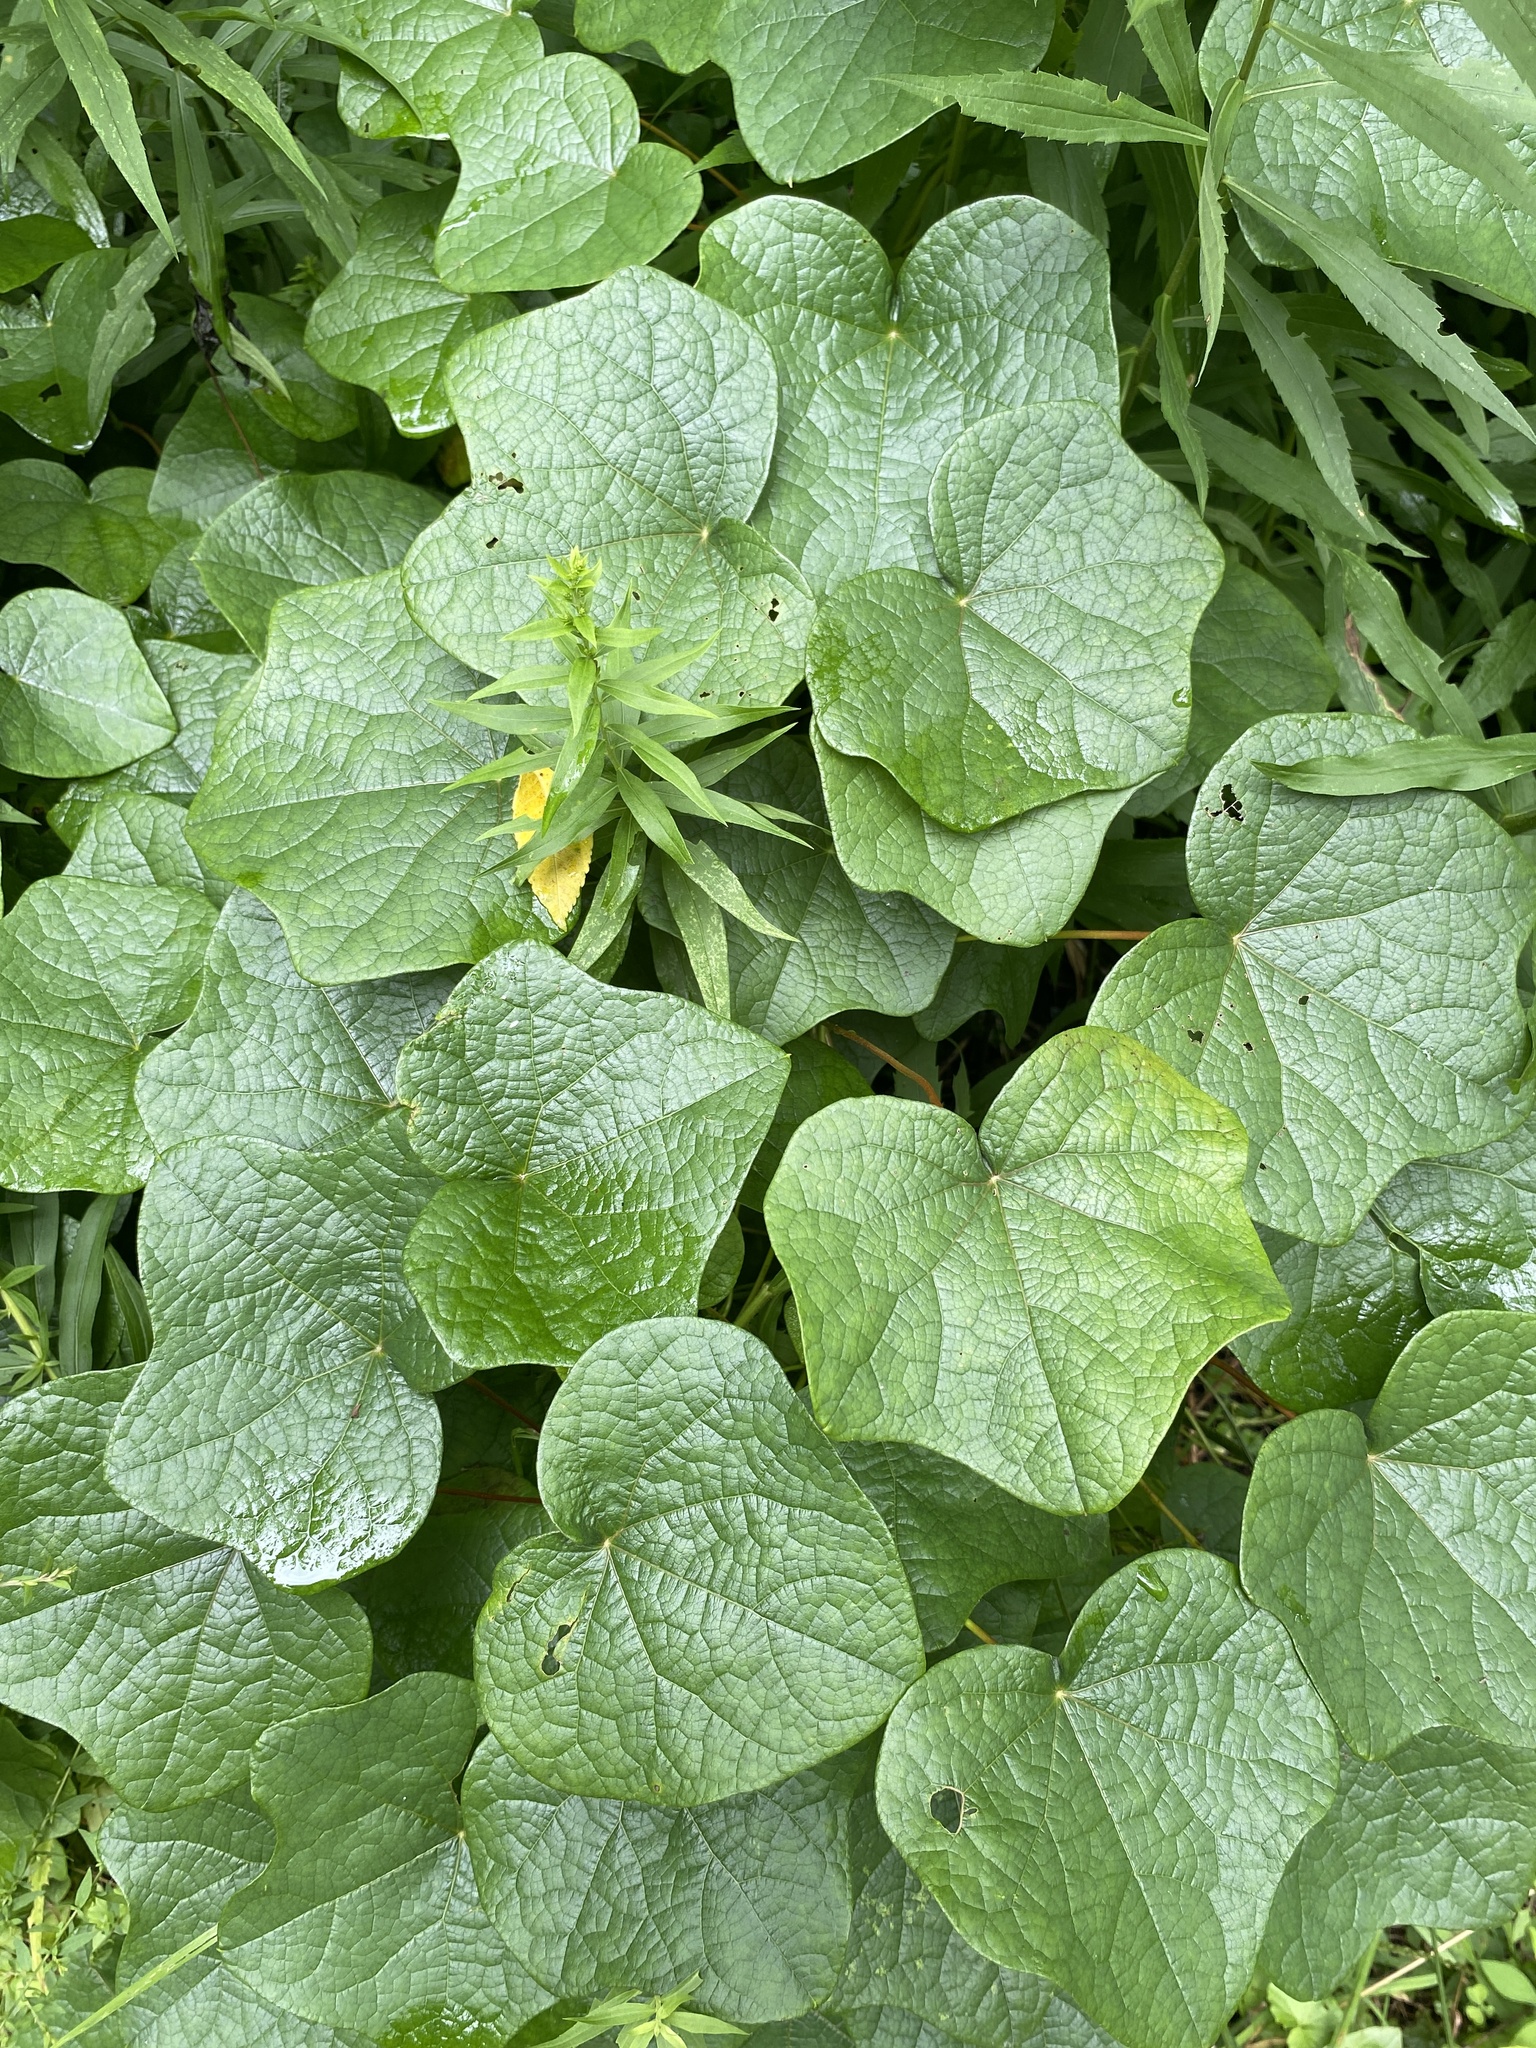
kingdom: Plantae
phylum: Tracheophyta
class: Magnoliopsida
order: Ranunculales
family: Menispermaceae
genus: Menispermum
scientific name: Menispermum canadense
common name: Moonseed
